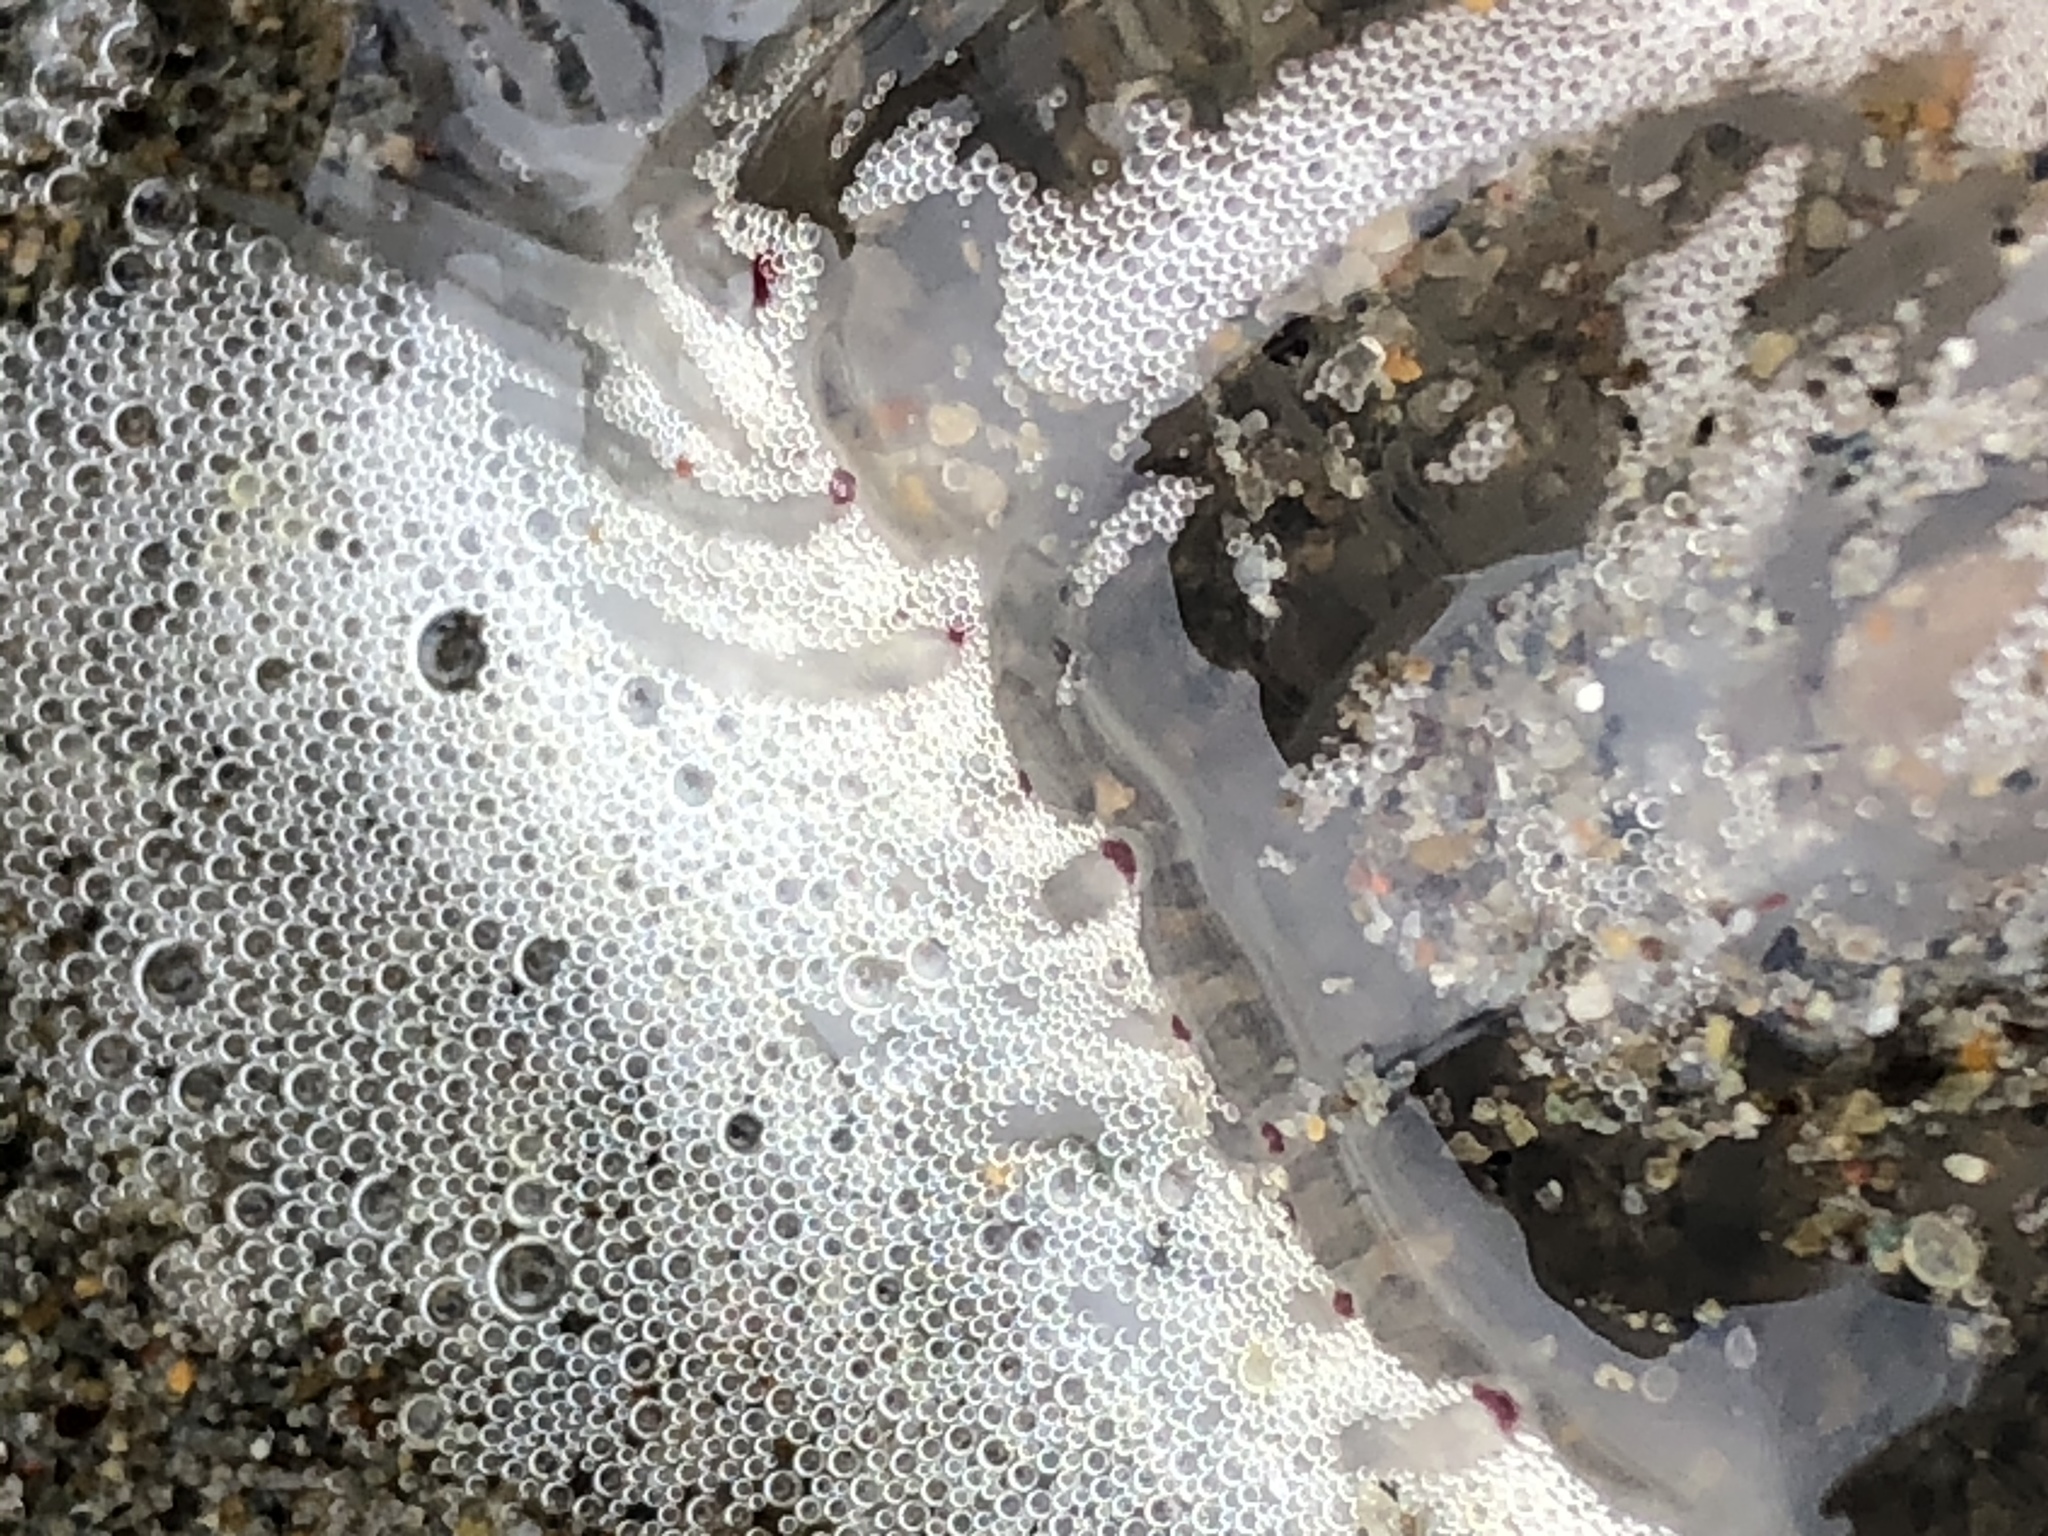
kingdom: Animalia
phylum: Cnidaria
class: Hydrozoa
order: Anthoathecata
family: Corynidae
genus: Polyorchis
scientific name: Polyorchis penicillatus
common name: Penicillate jellyfish
